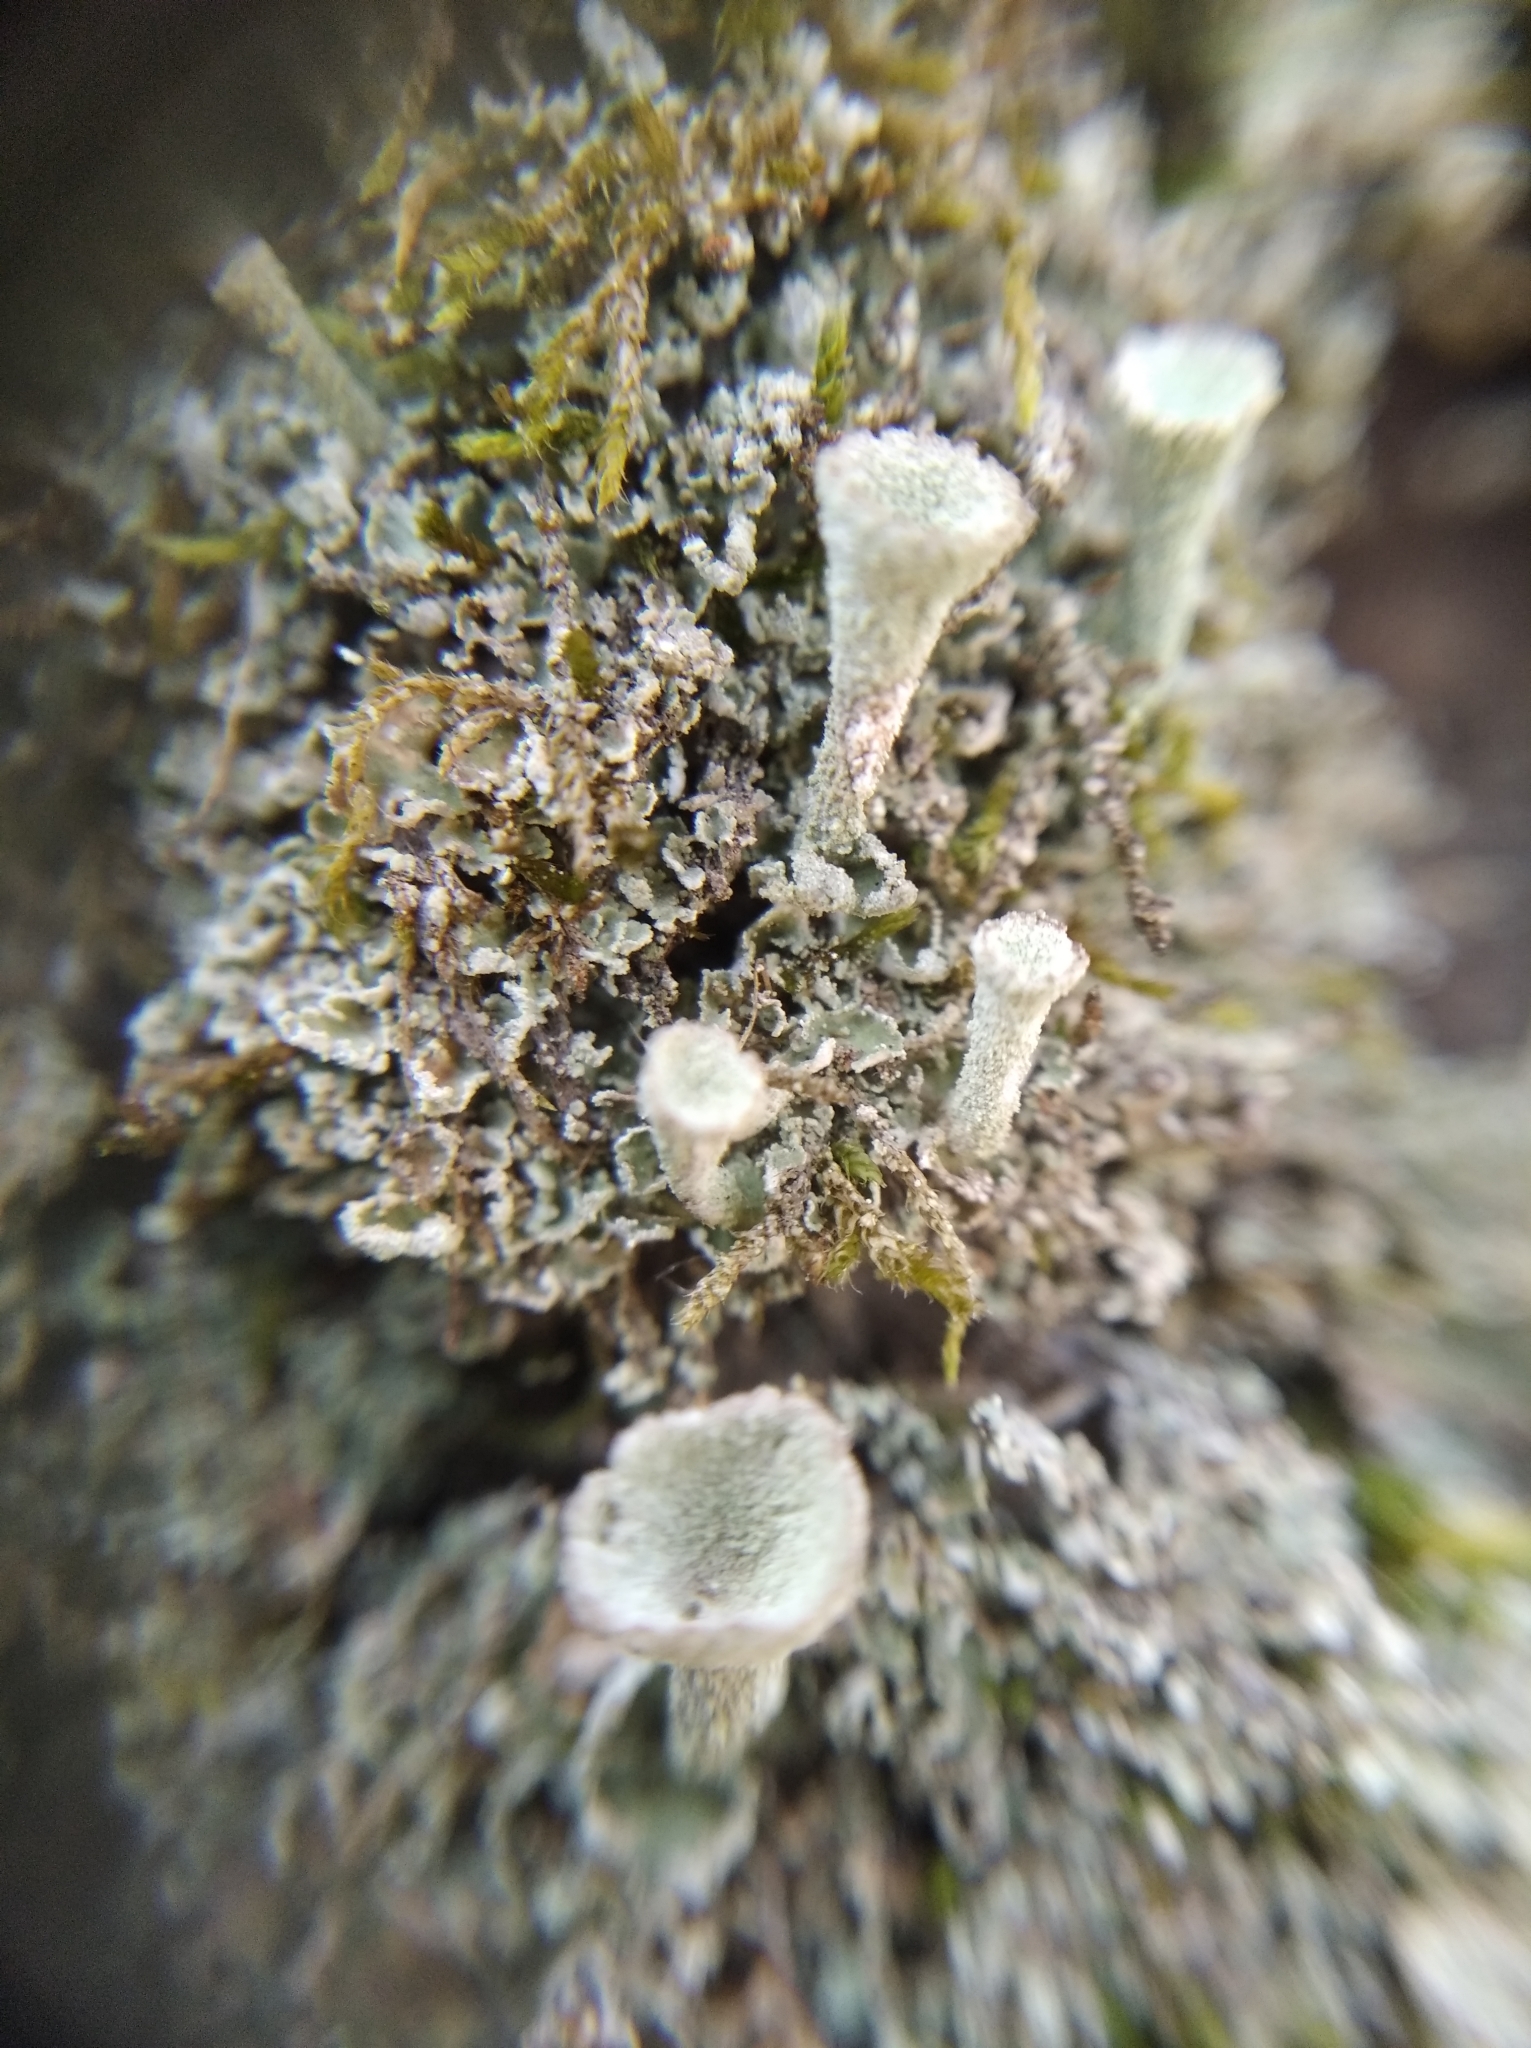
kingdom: Fungi
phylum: Ascomycota
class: Lecanoromycetes
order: Lecanorales
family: Cladoniaceae
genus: Cladonia
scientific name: Cladonia fimbriata
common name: Powdered trumpet lichen
